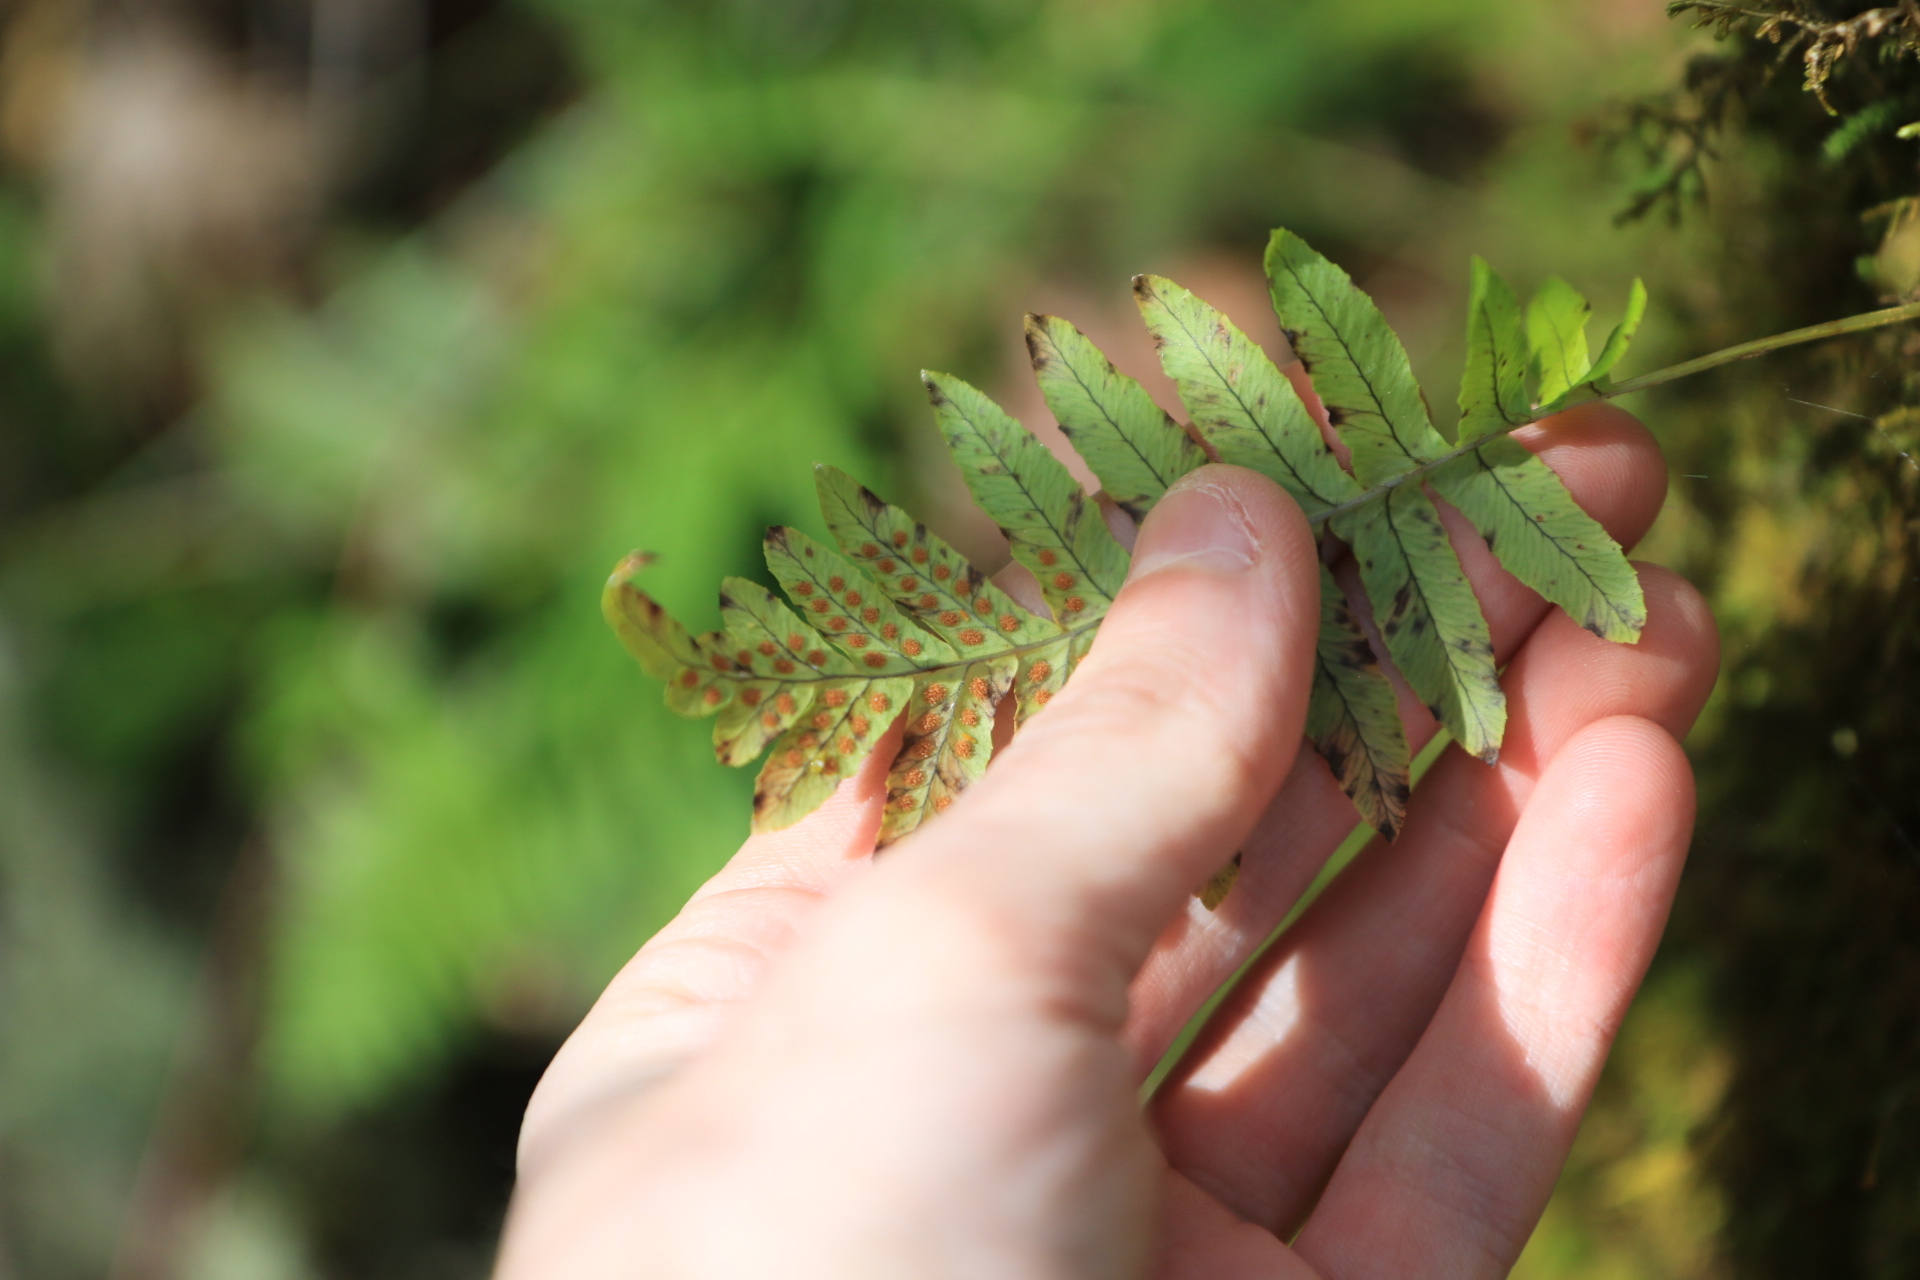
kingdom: Plantae
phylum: Tracheophyta
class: Polypodiopsida
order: Polypodiales
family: Polypodiaceae
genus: Polypodium
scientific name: Polypodium glycyrrhiza
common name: Licorice fern
